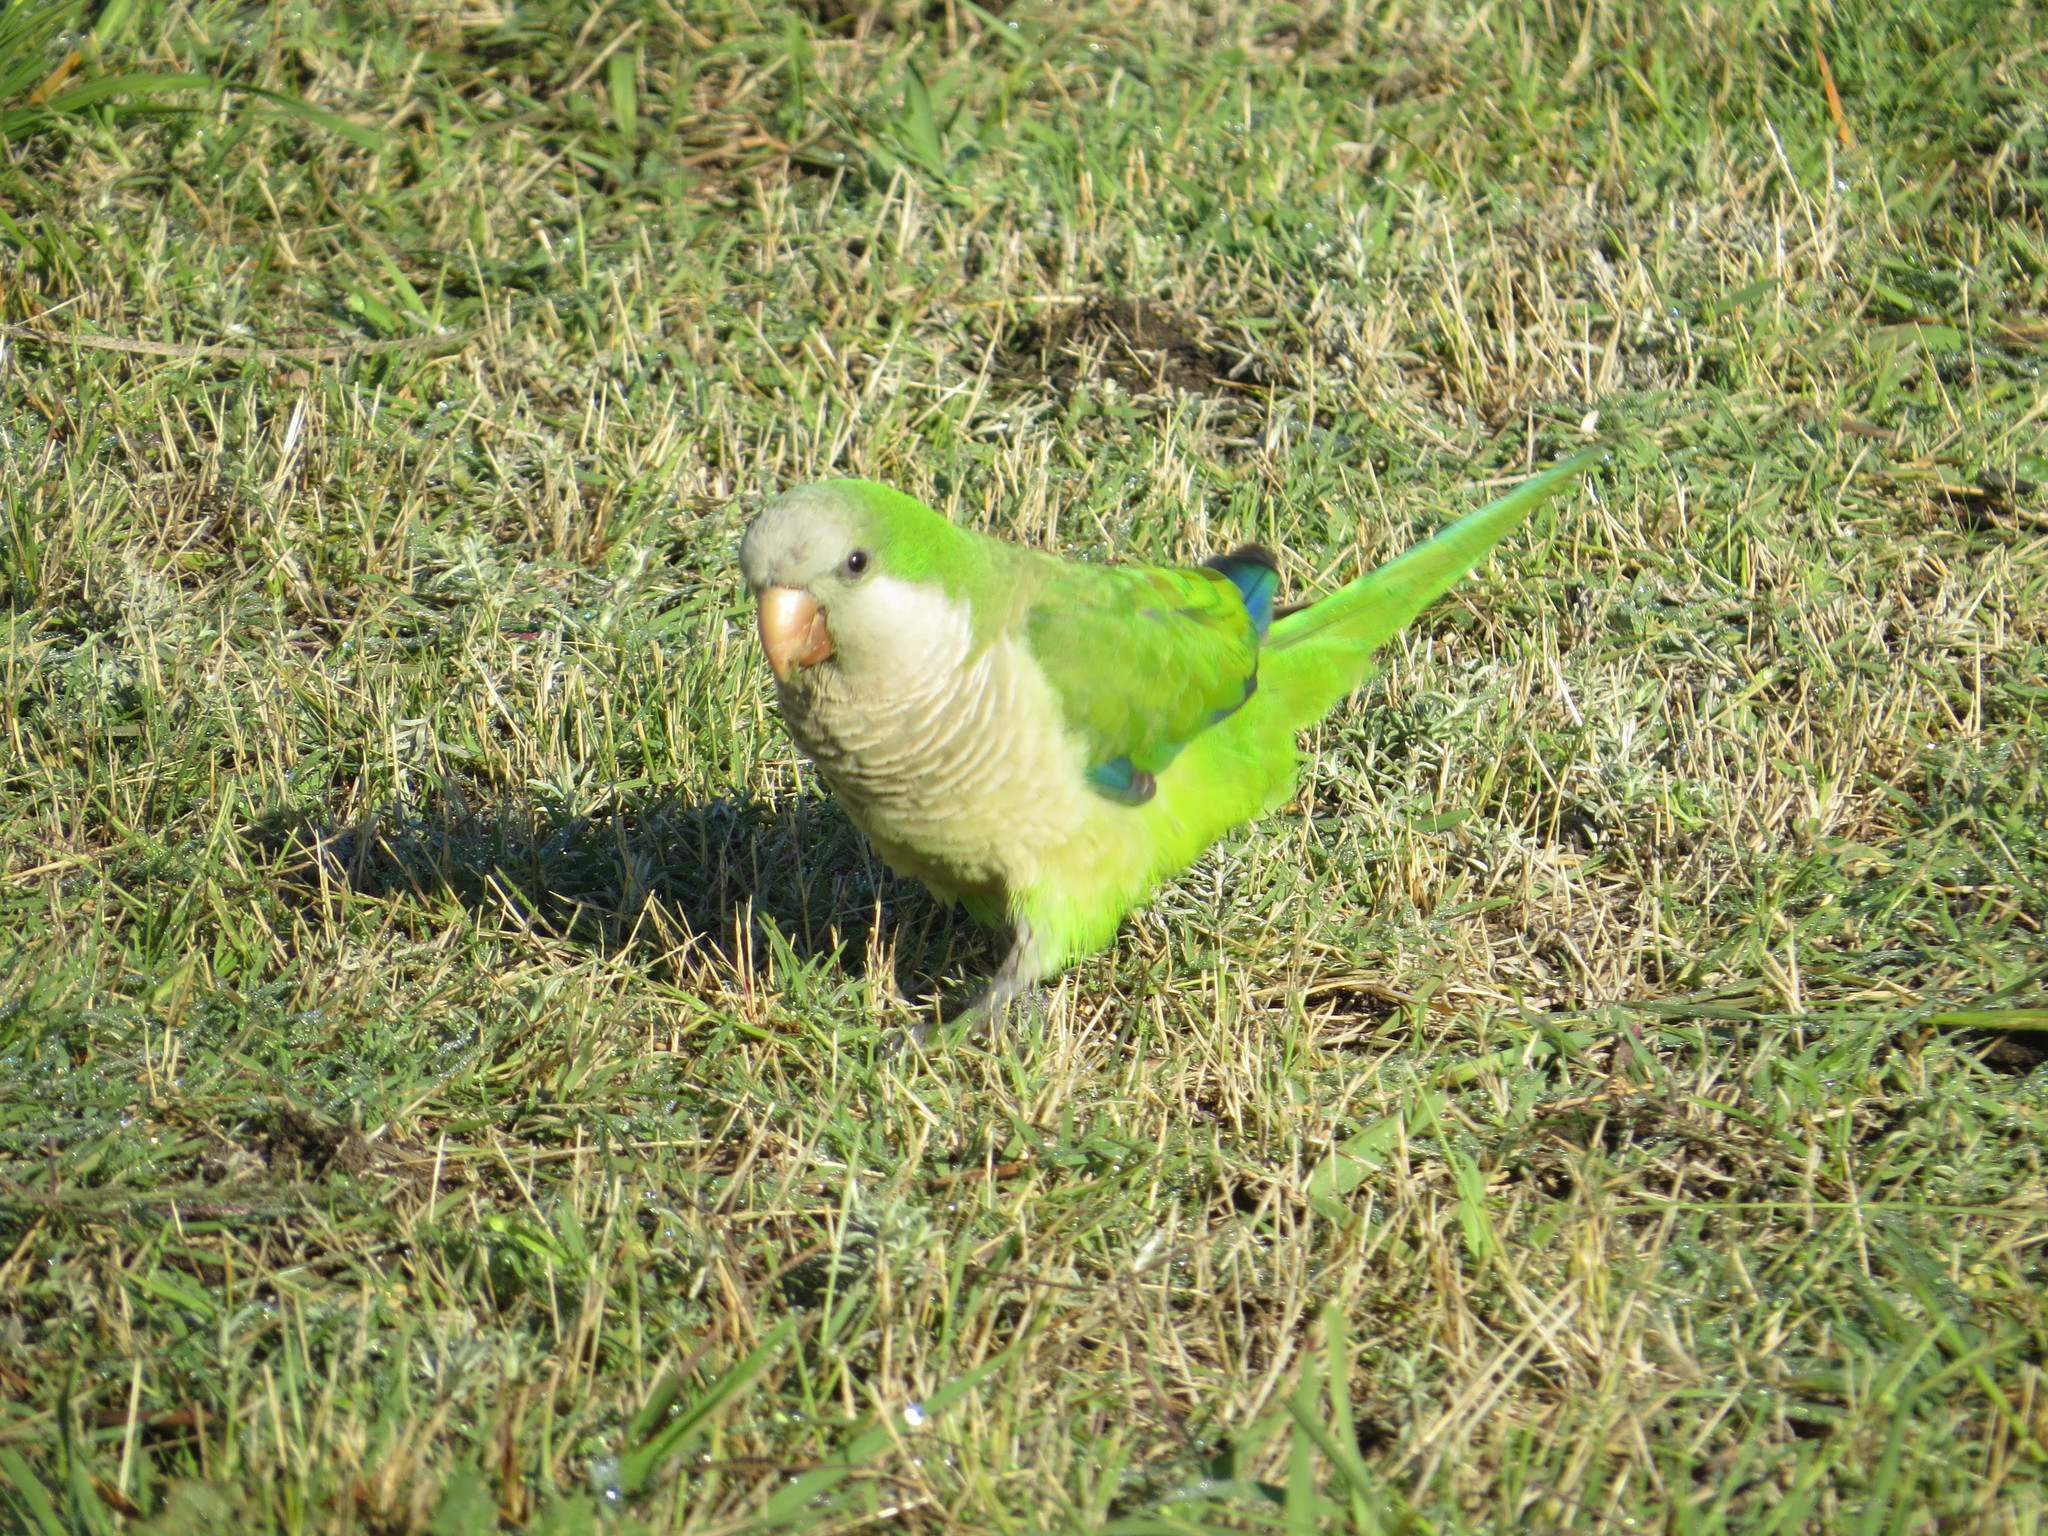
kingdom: Animalia
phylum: Chordata
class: Aves
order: Psittaciformes
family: Psittacidae
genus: Myiopsitta
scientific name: Myiopsitta monachus
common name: Monk parakeet
